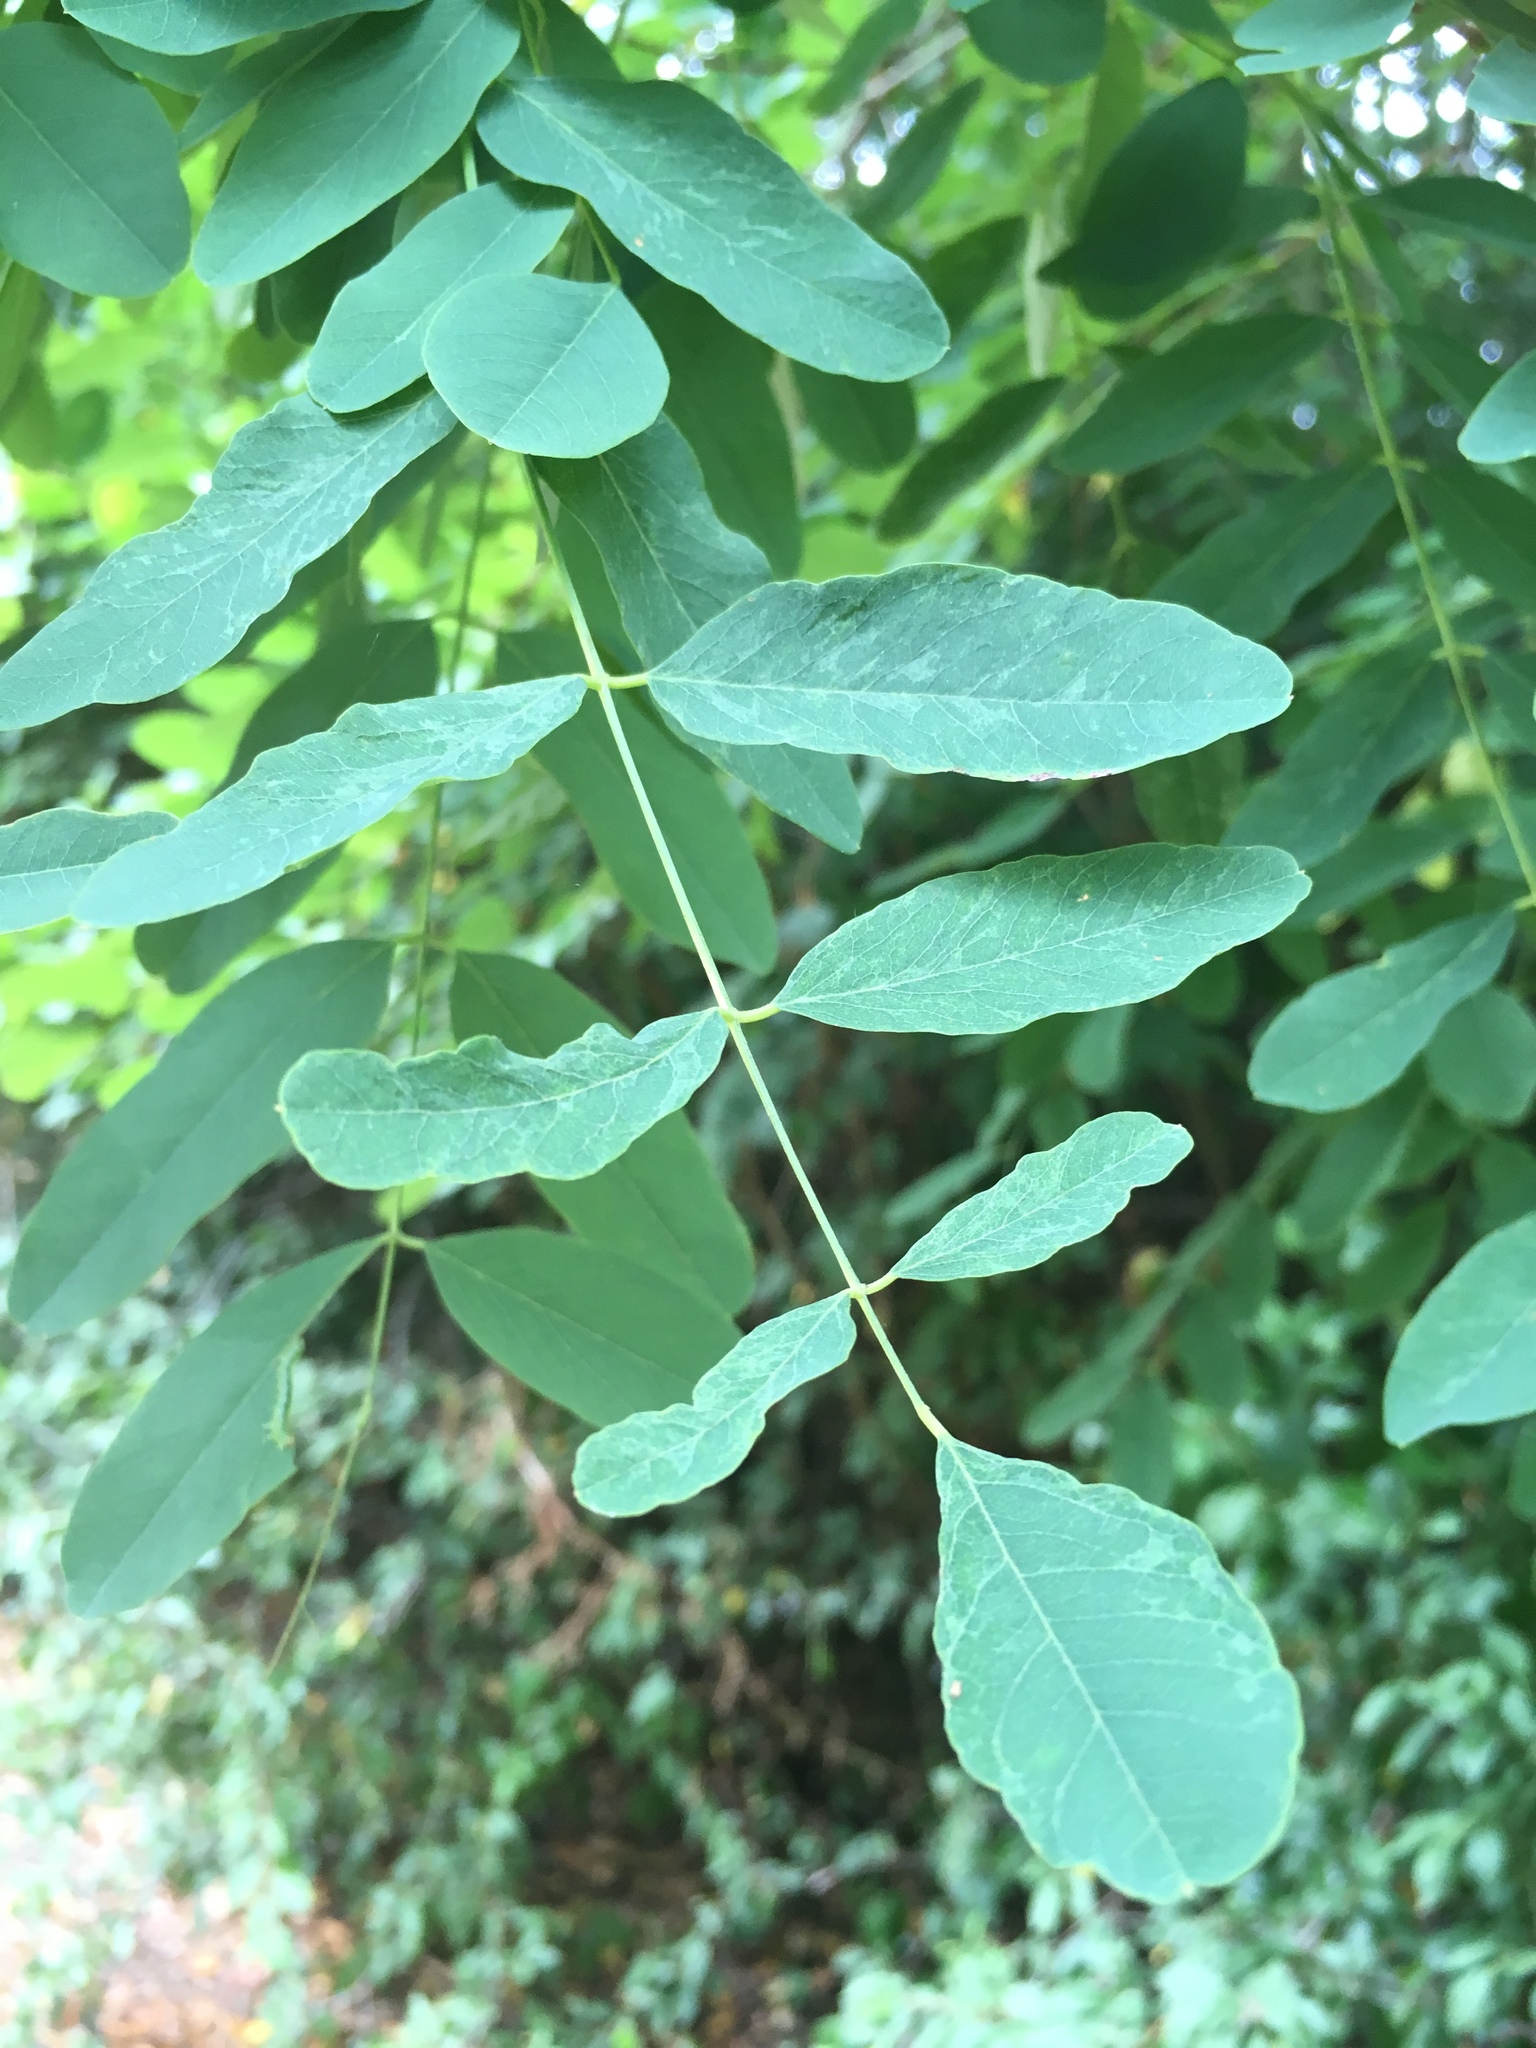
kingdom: Plantae
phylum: Tracheophyta
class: Magnoliopsida
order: Fabales
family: Fabaceae
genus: Robinia
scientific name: Robinia pseudoacacia
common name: Black locust
